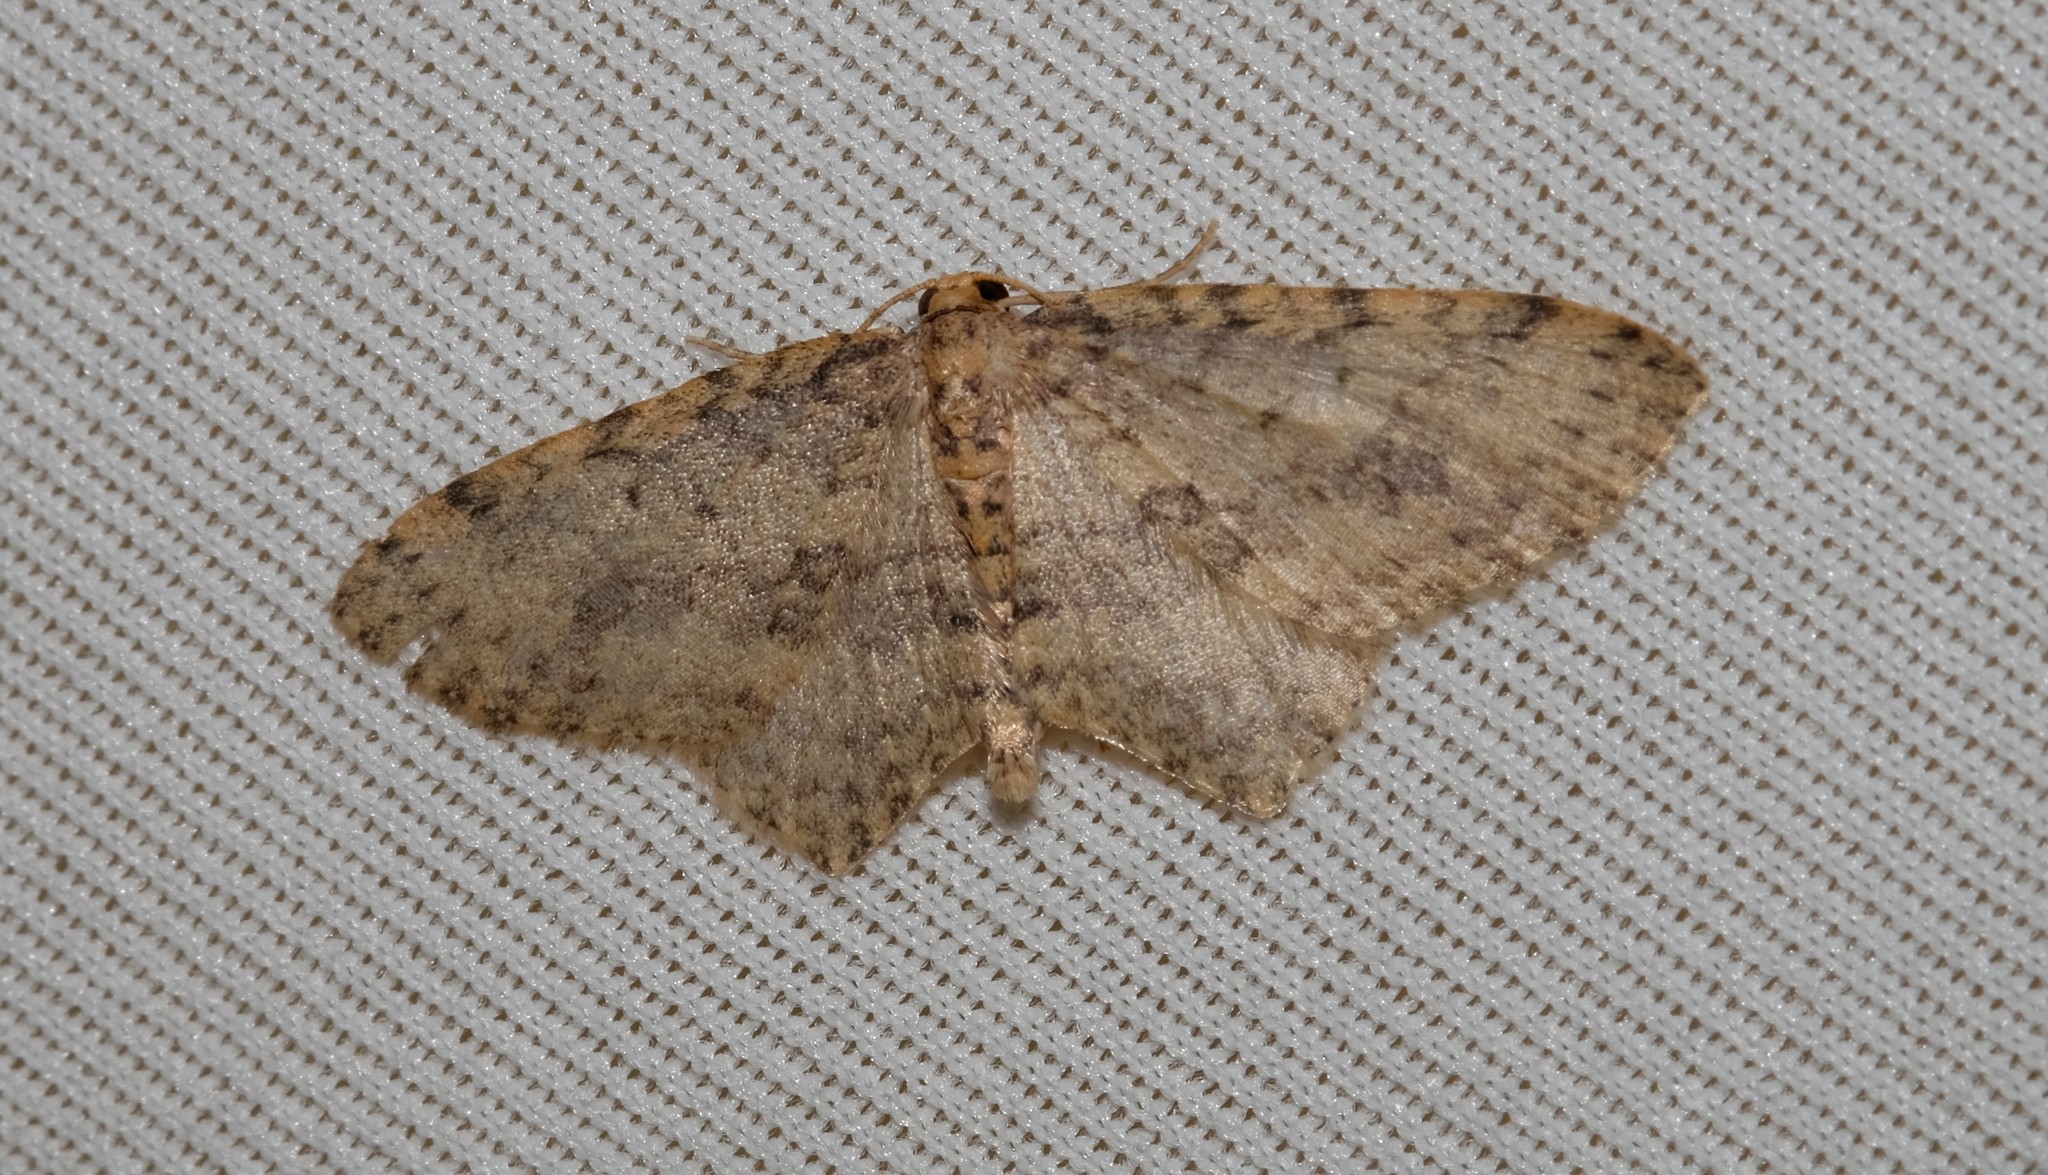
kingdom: Animalia
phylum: Arthropoda
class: Insecta
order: Lepidoptera
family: Geometridae
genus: Poecilasthena
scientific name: Poecilasthena scoliota
